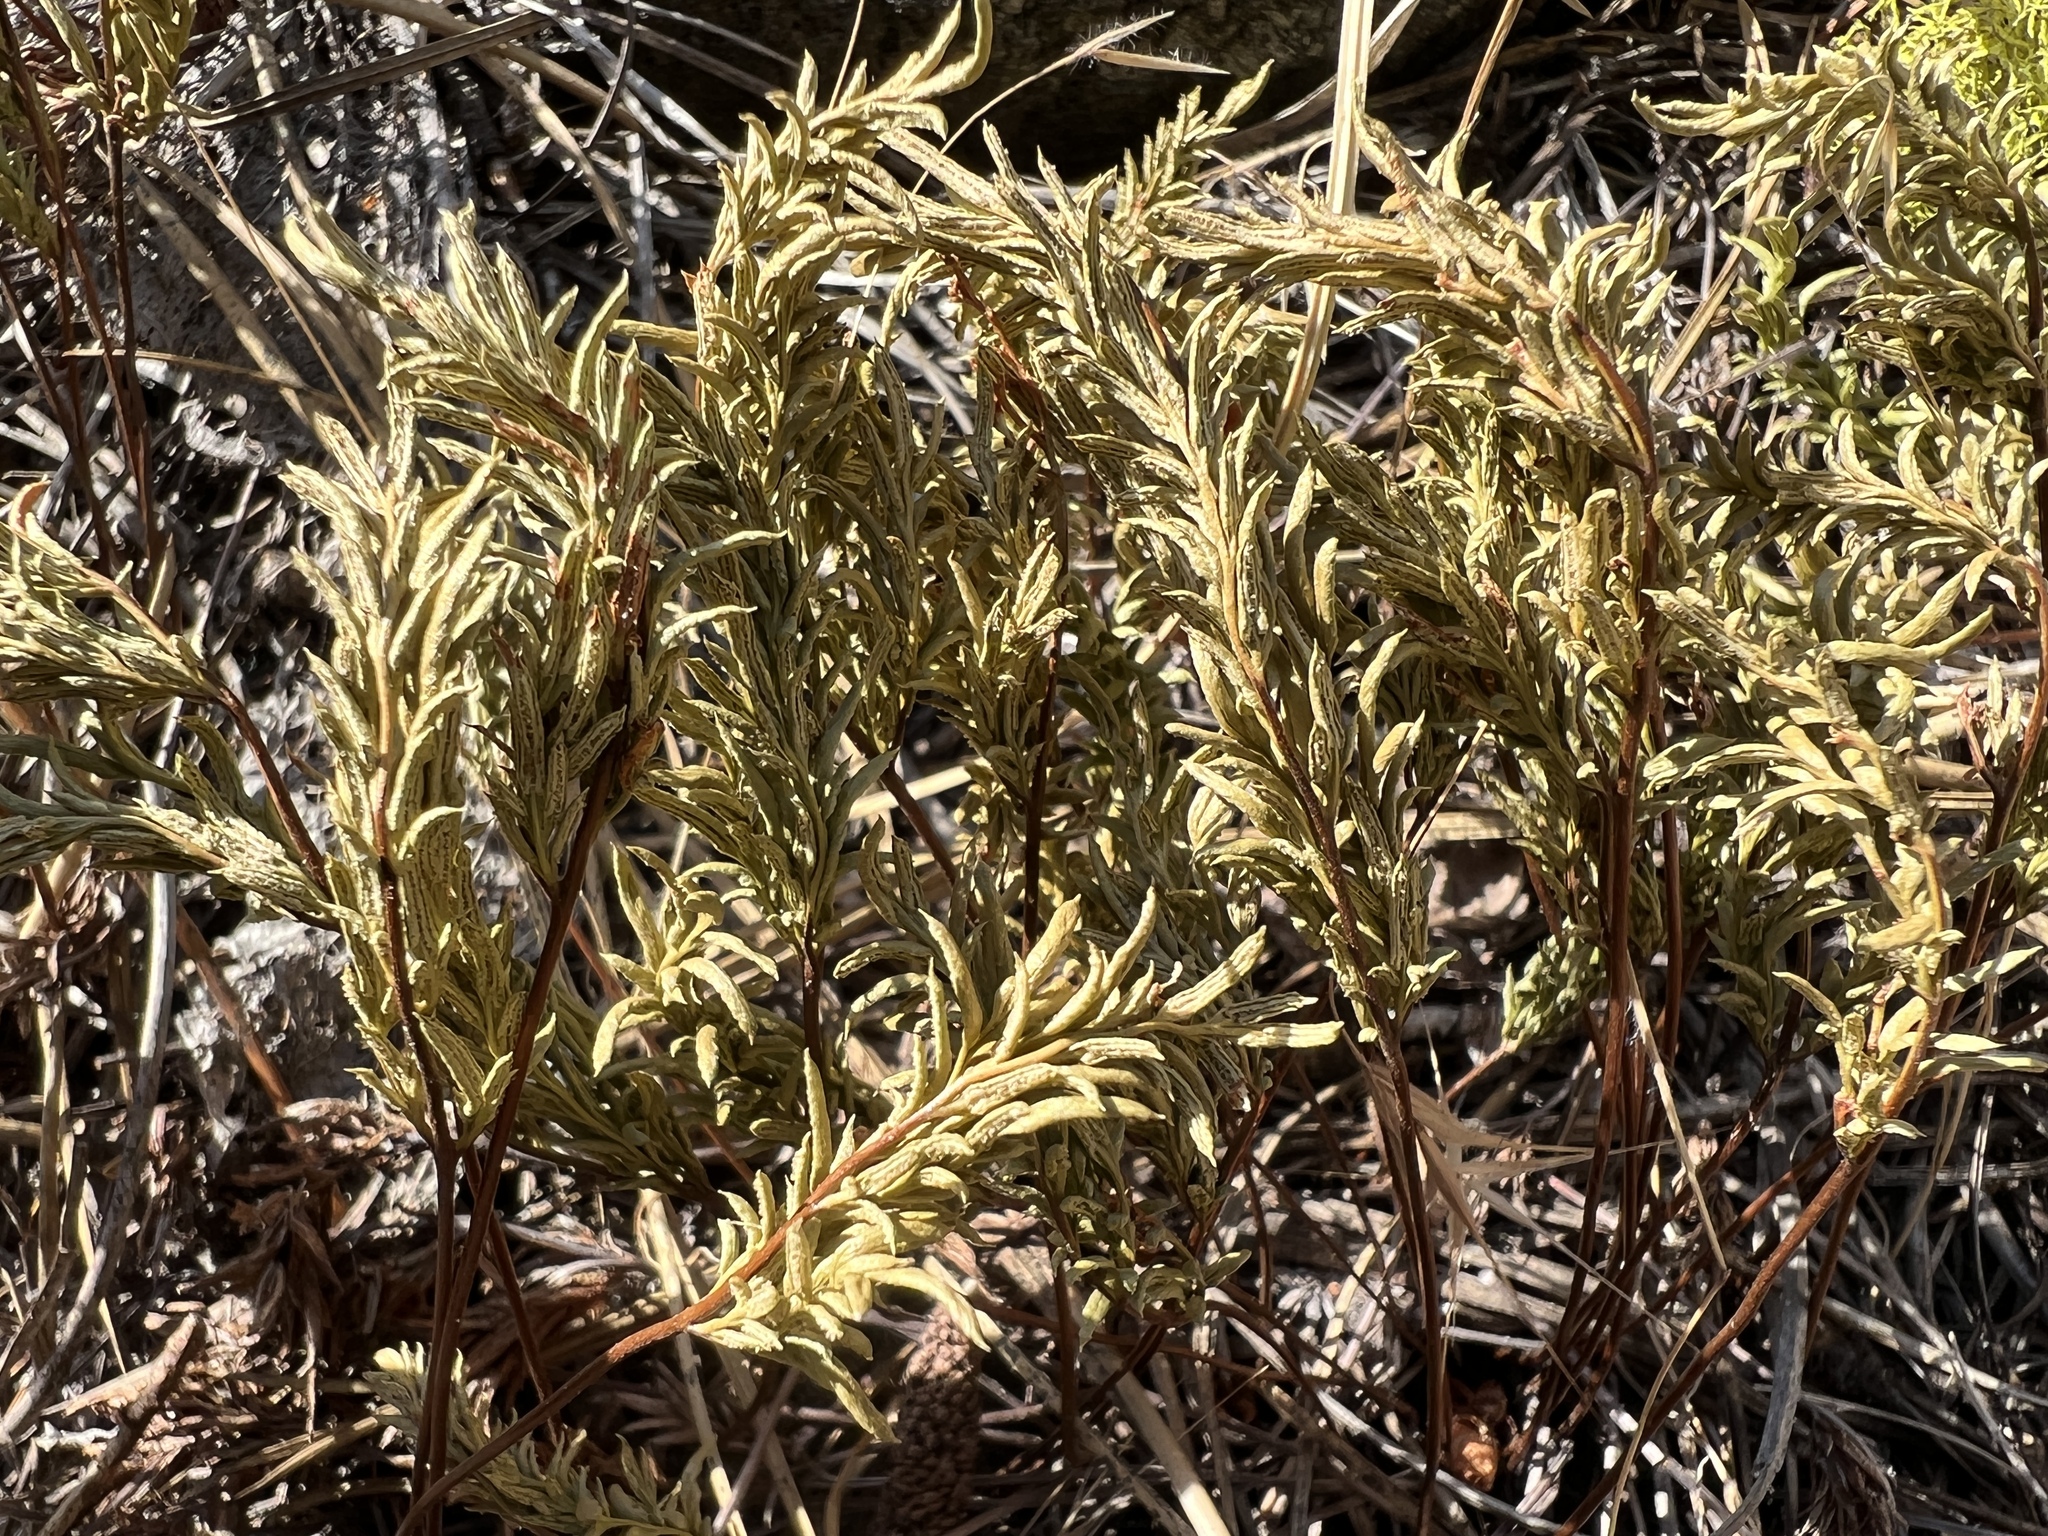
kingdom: Plantae
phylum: Tracheophyta
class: Polypodiopsida
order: Polypodiales
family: Pteridaceae
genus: Aspidotis
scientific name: Aspidotis densa
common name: Indian's dream
